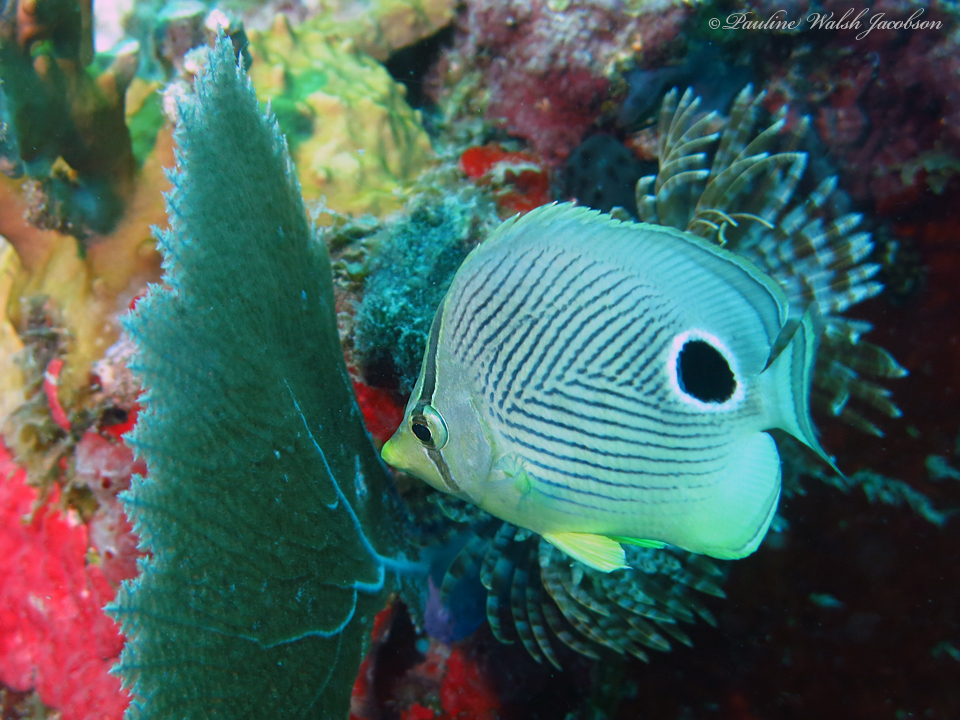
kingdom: Animalia
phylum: Chordata
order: Perciformes
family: Chaetodontidae
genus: Chaetodon
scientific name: Chaetodon capistratus
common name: Kete
